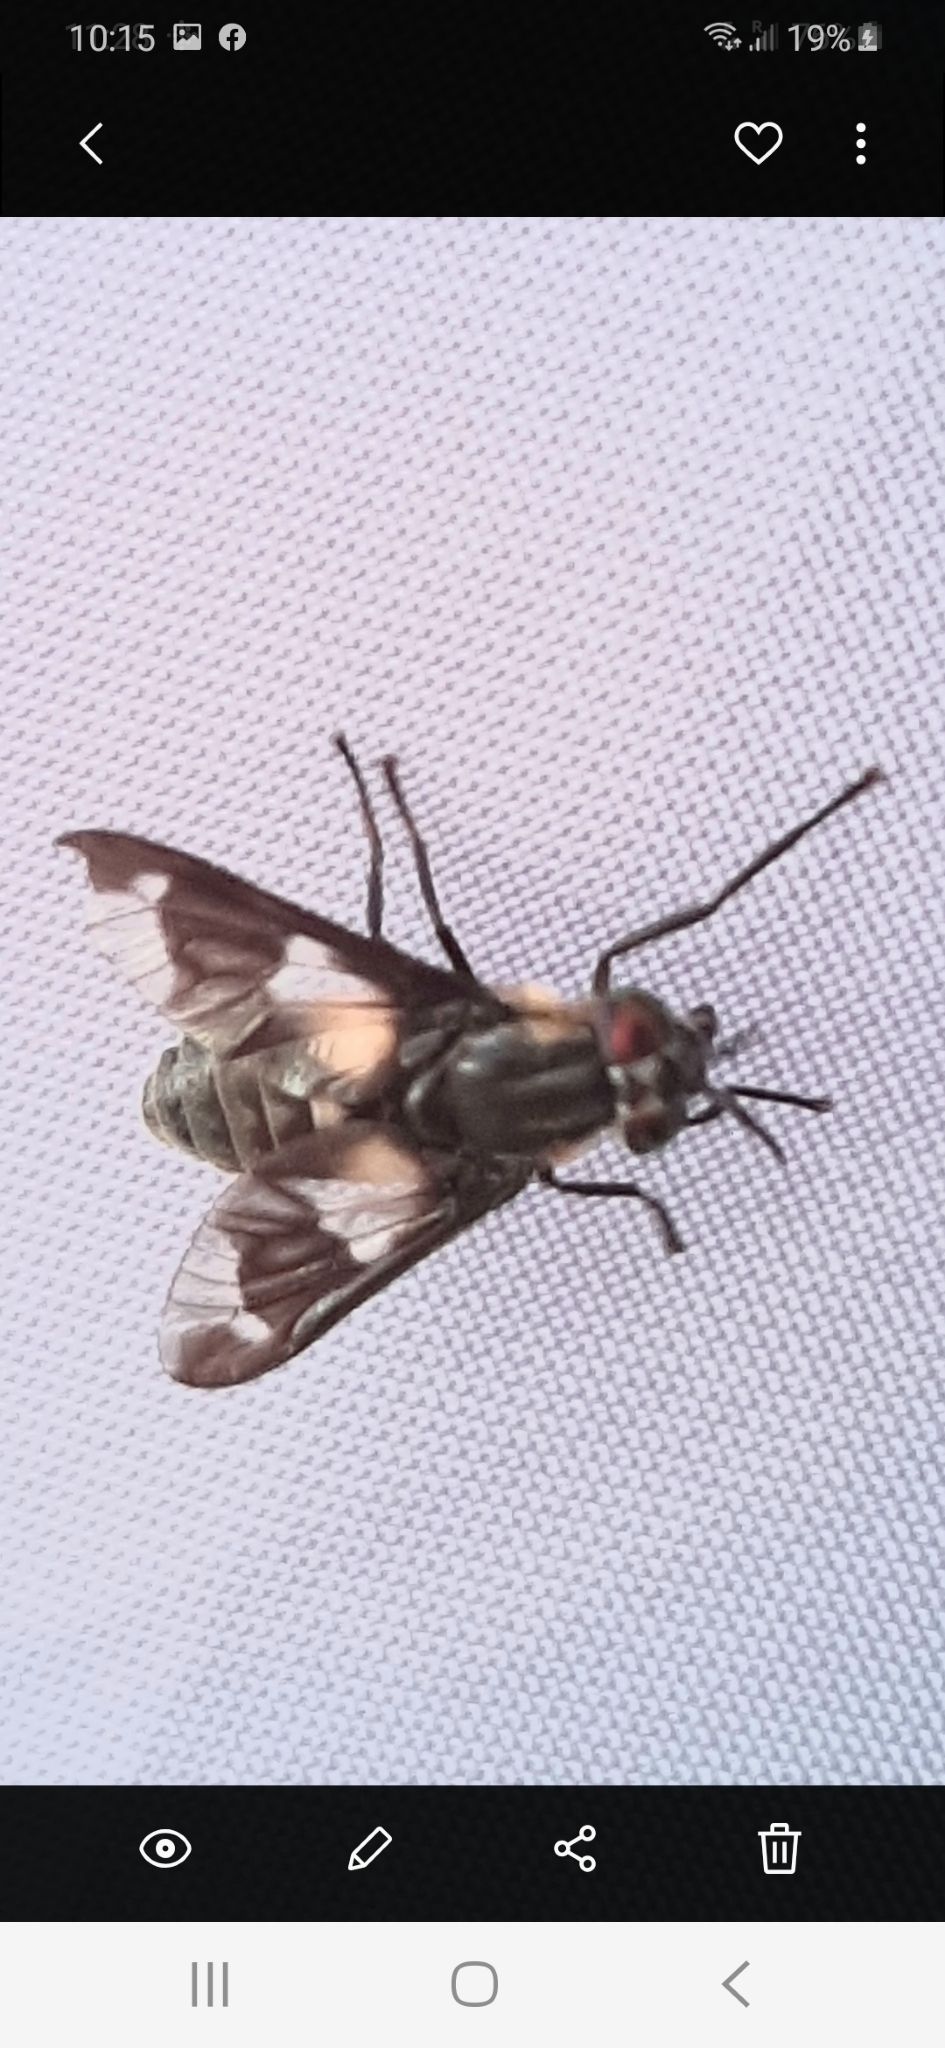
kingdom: Animalia
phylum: Arthropoda
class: Insecta
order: Diptera
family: Tabanidae
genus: Chrysops
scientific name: Chrysops caecutiens
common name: Splayed deerfly
